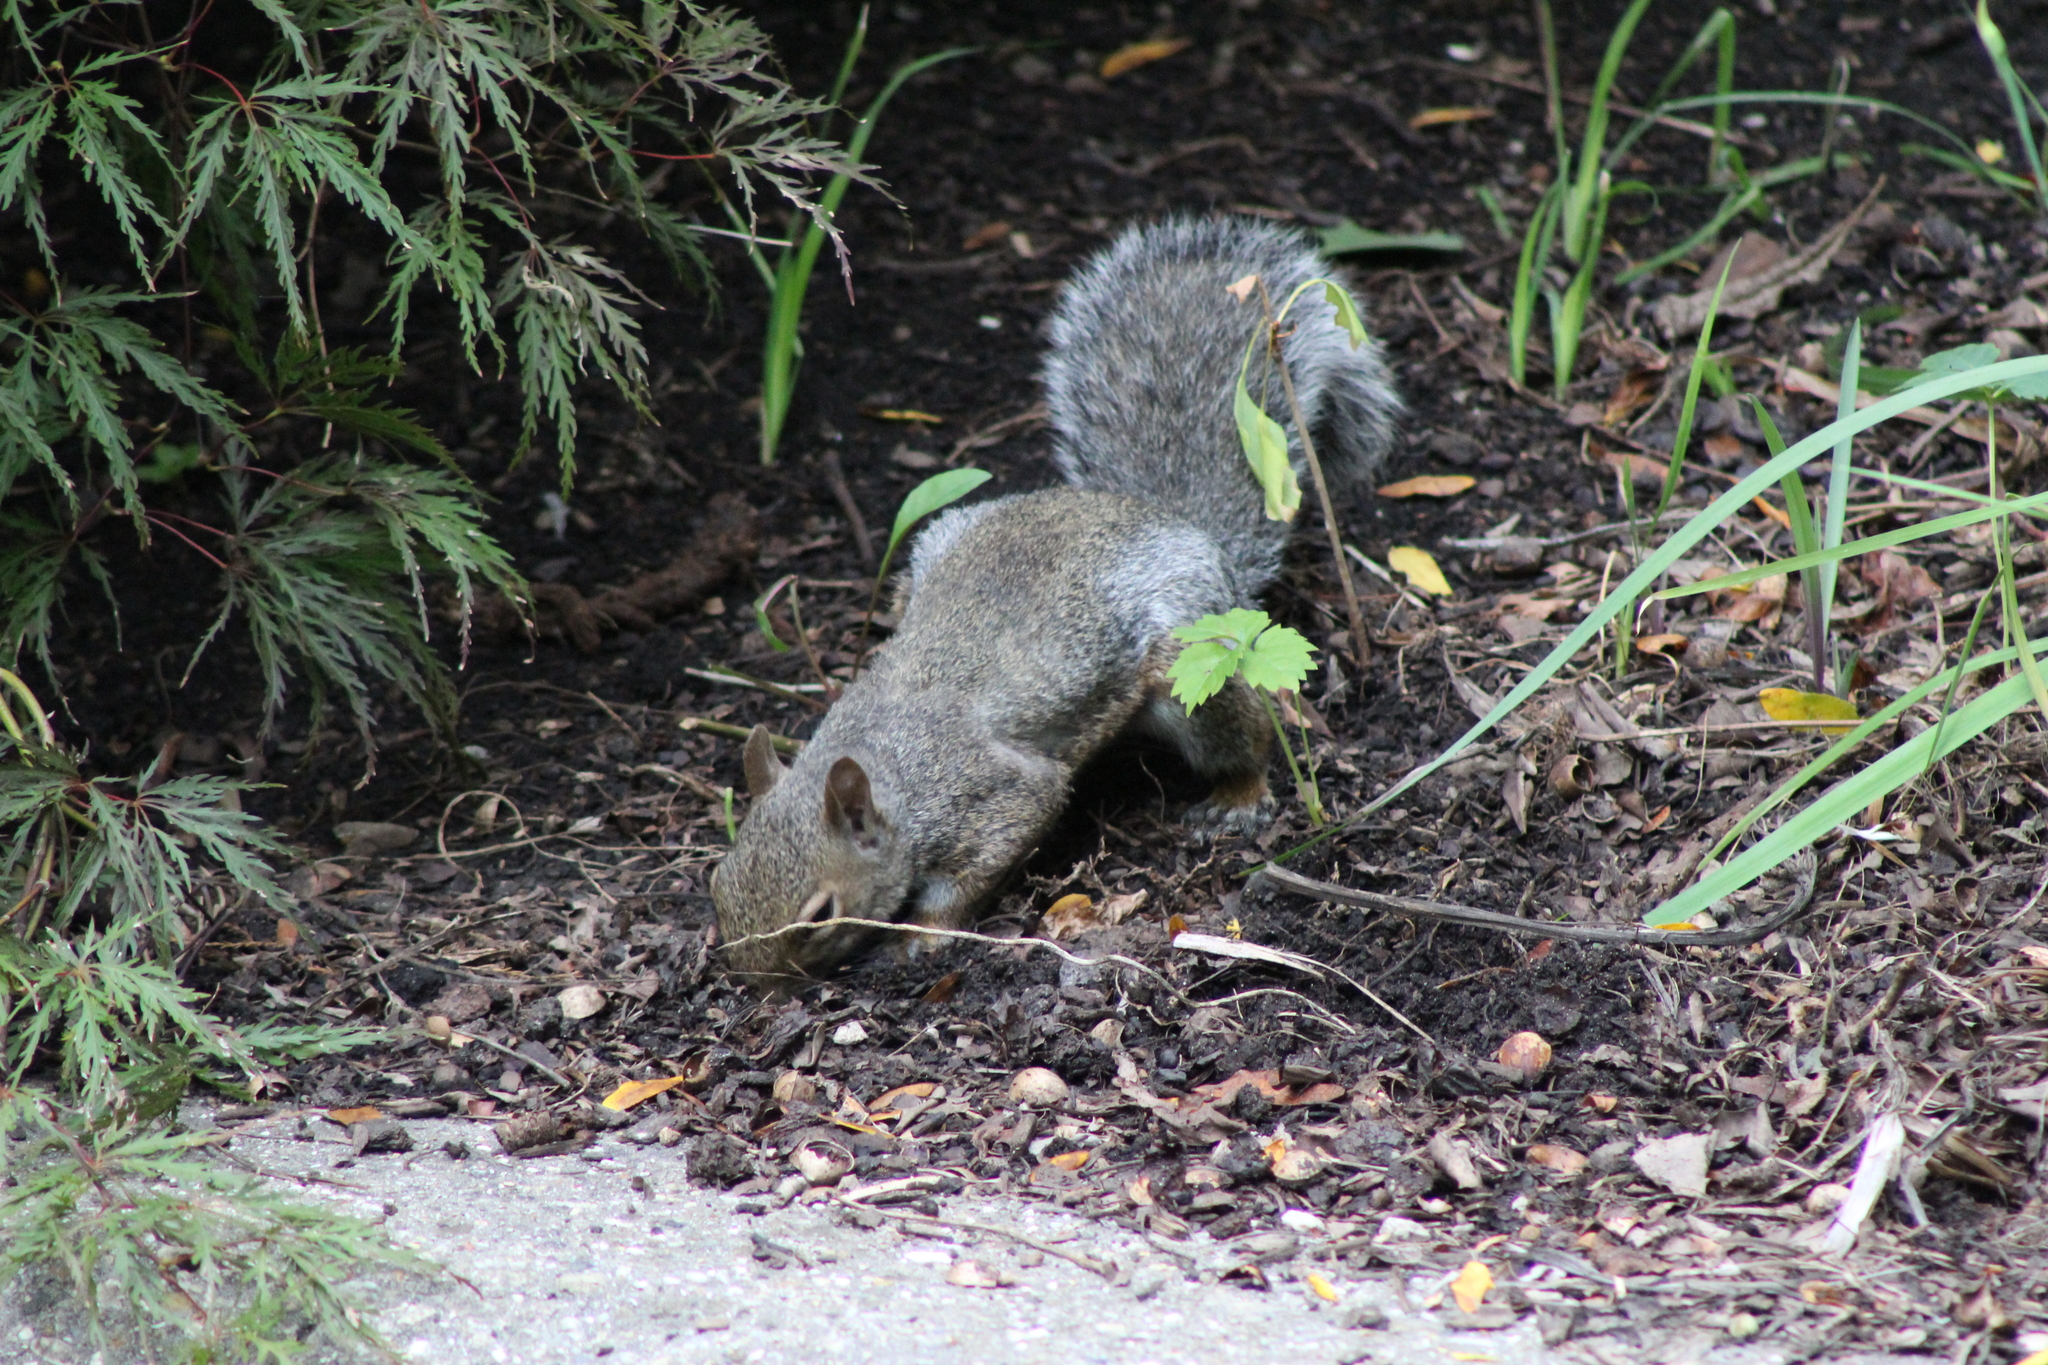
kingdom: Animalia
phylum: Chordata
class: Mammalia
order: Rodentia
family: Sciuridae
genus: Sciurus
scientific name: Sciurus carolinensis
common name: Eastern gray squirrel
